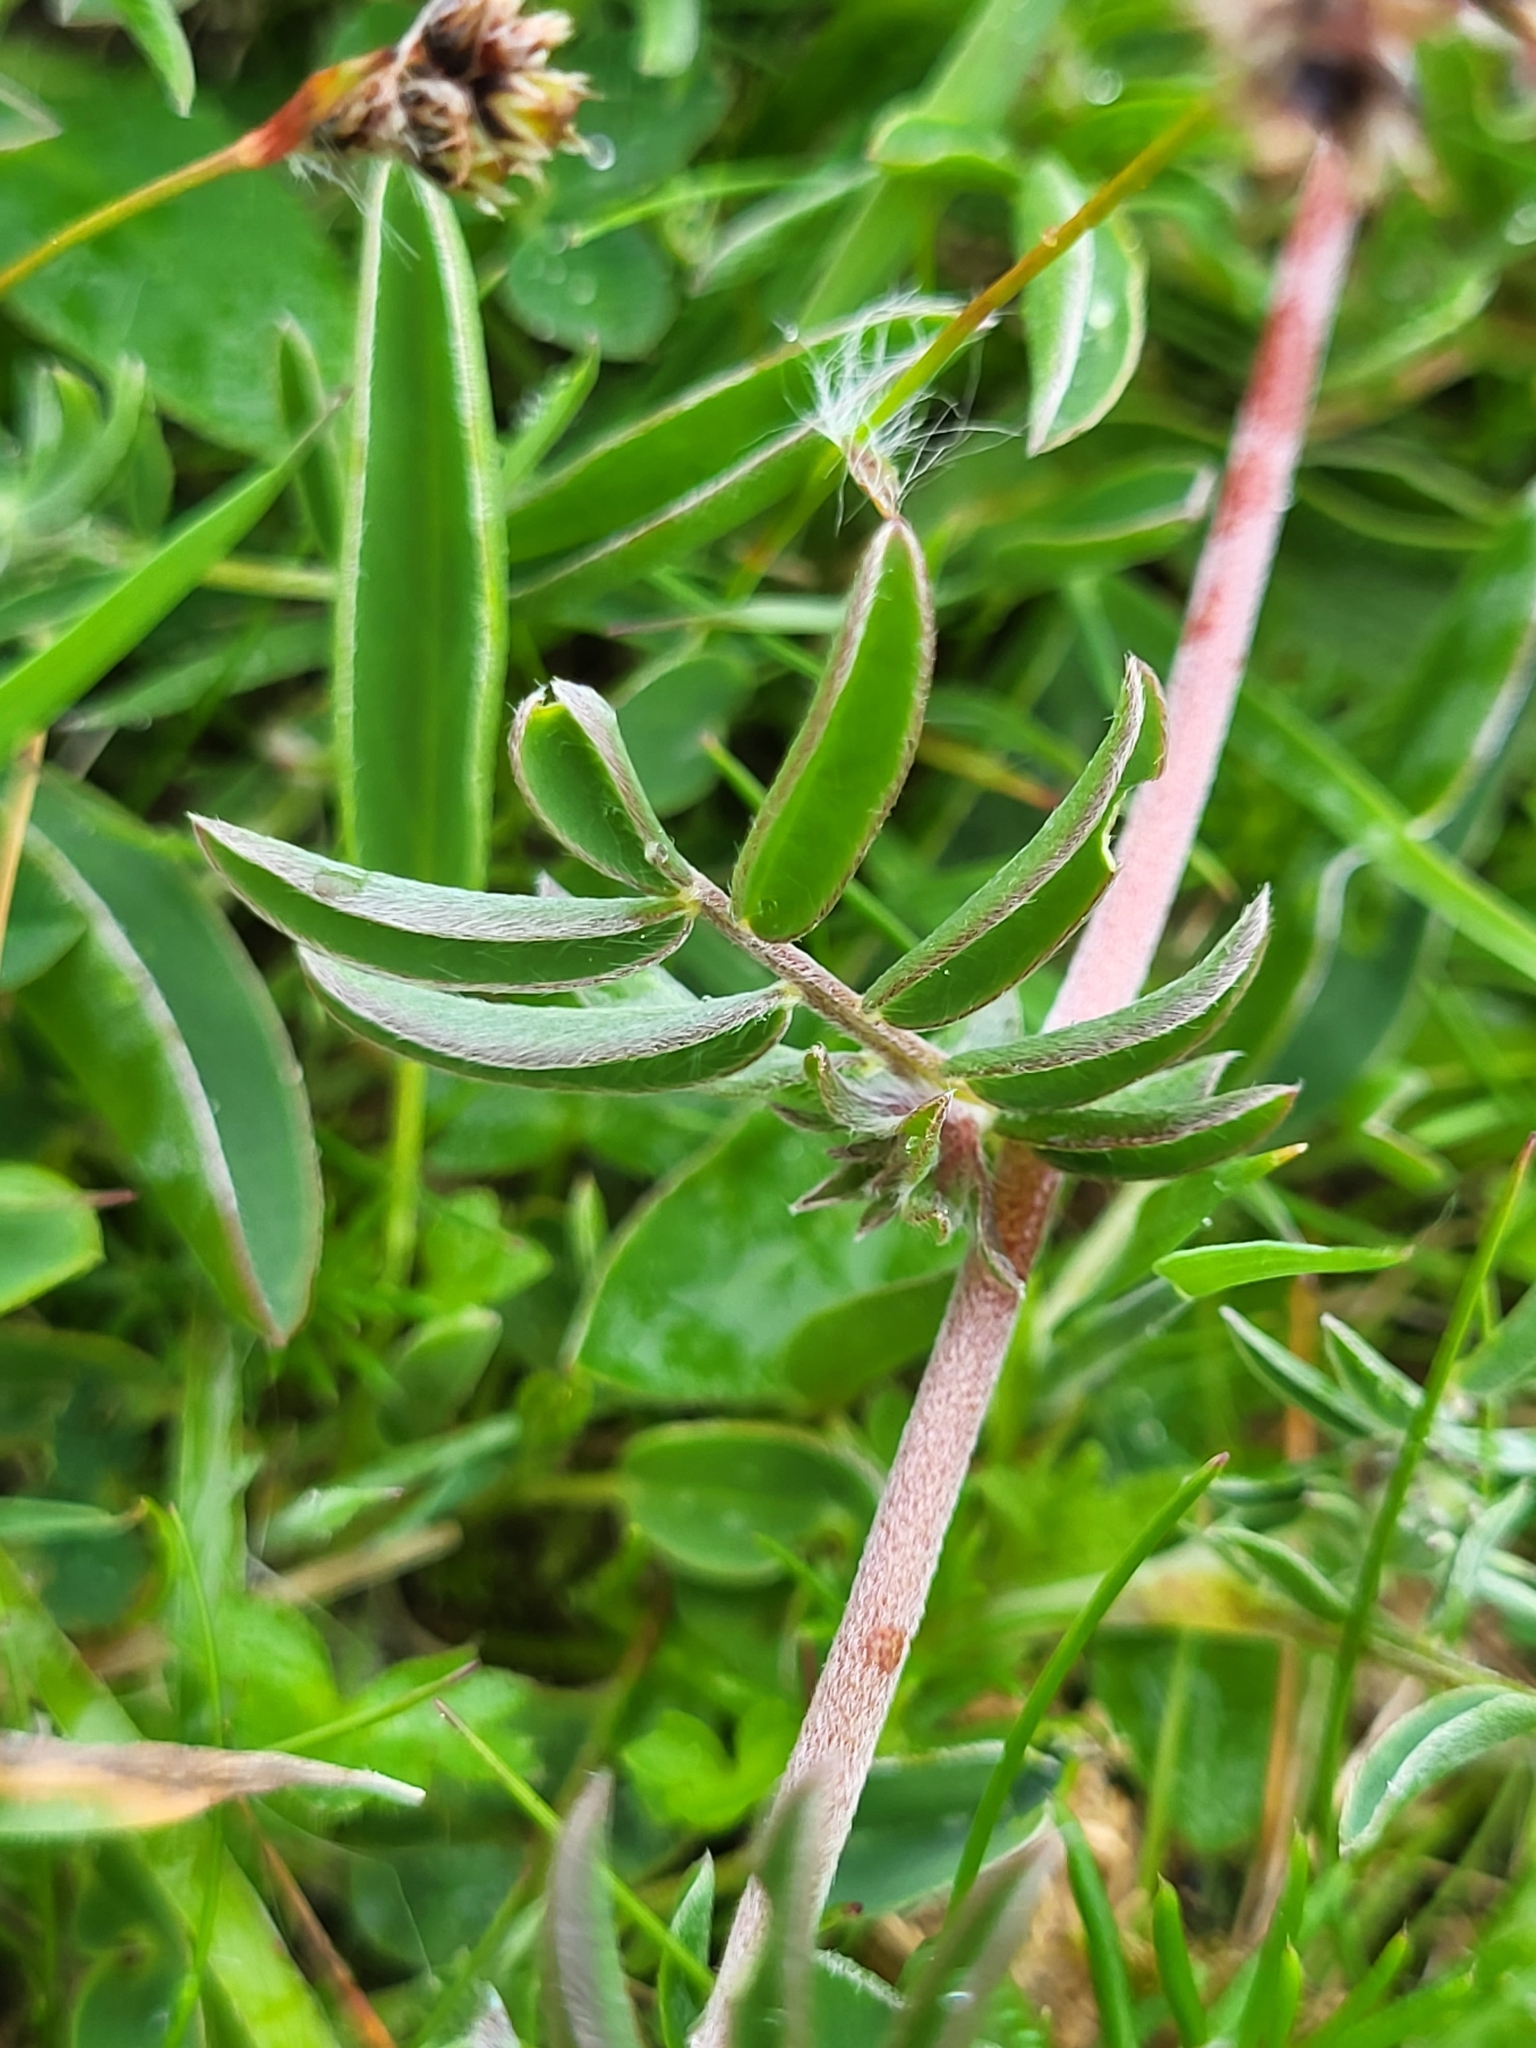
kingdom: Plantae
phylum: Tracheophyta
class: Magnoliopsida
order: Fabales
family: Fabaceae
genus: Anthyllis
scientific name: Anthyllis vulneraria
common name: Kidney vetch
